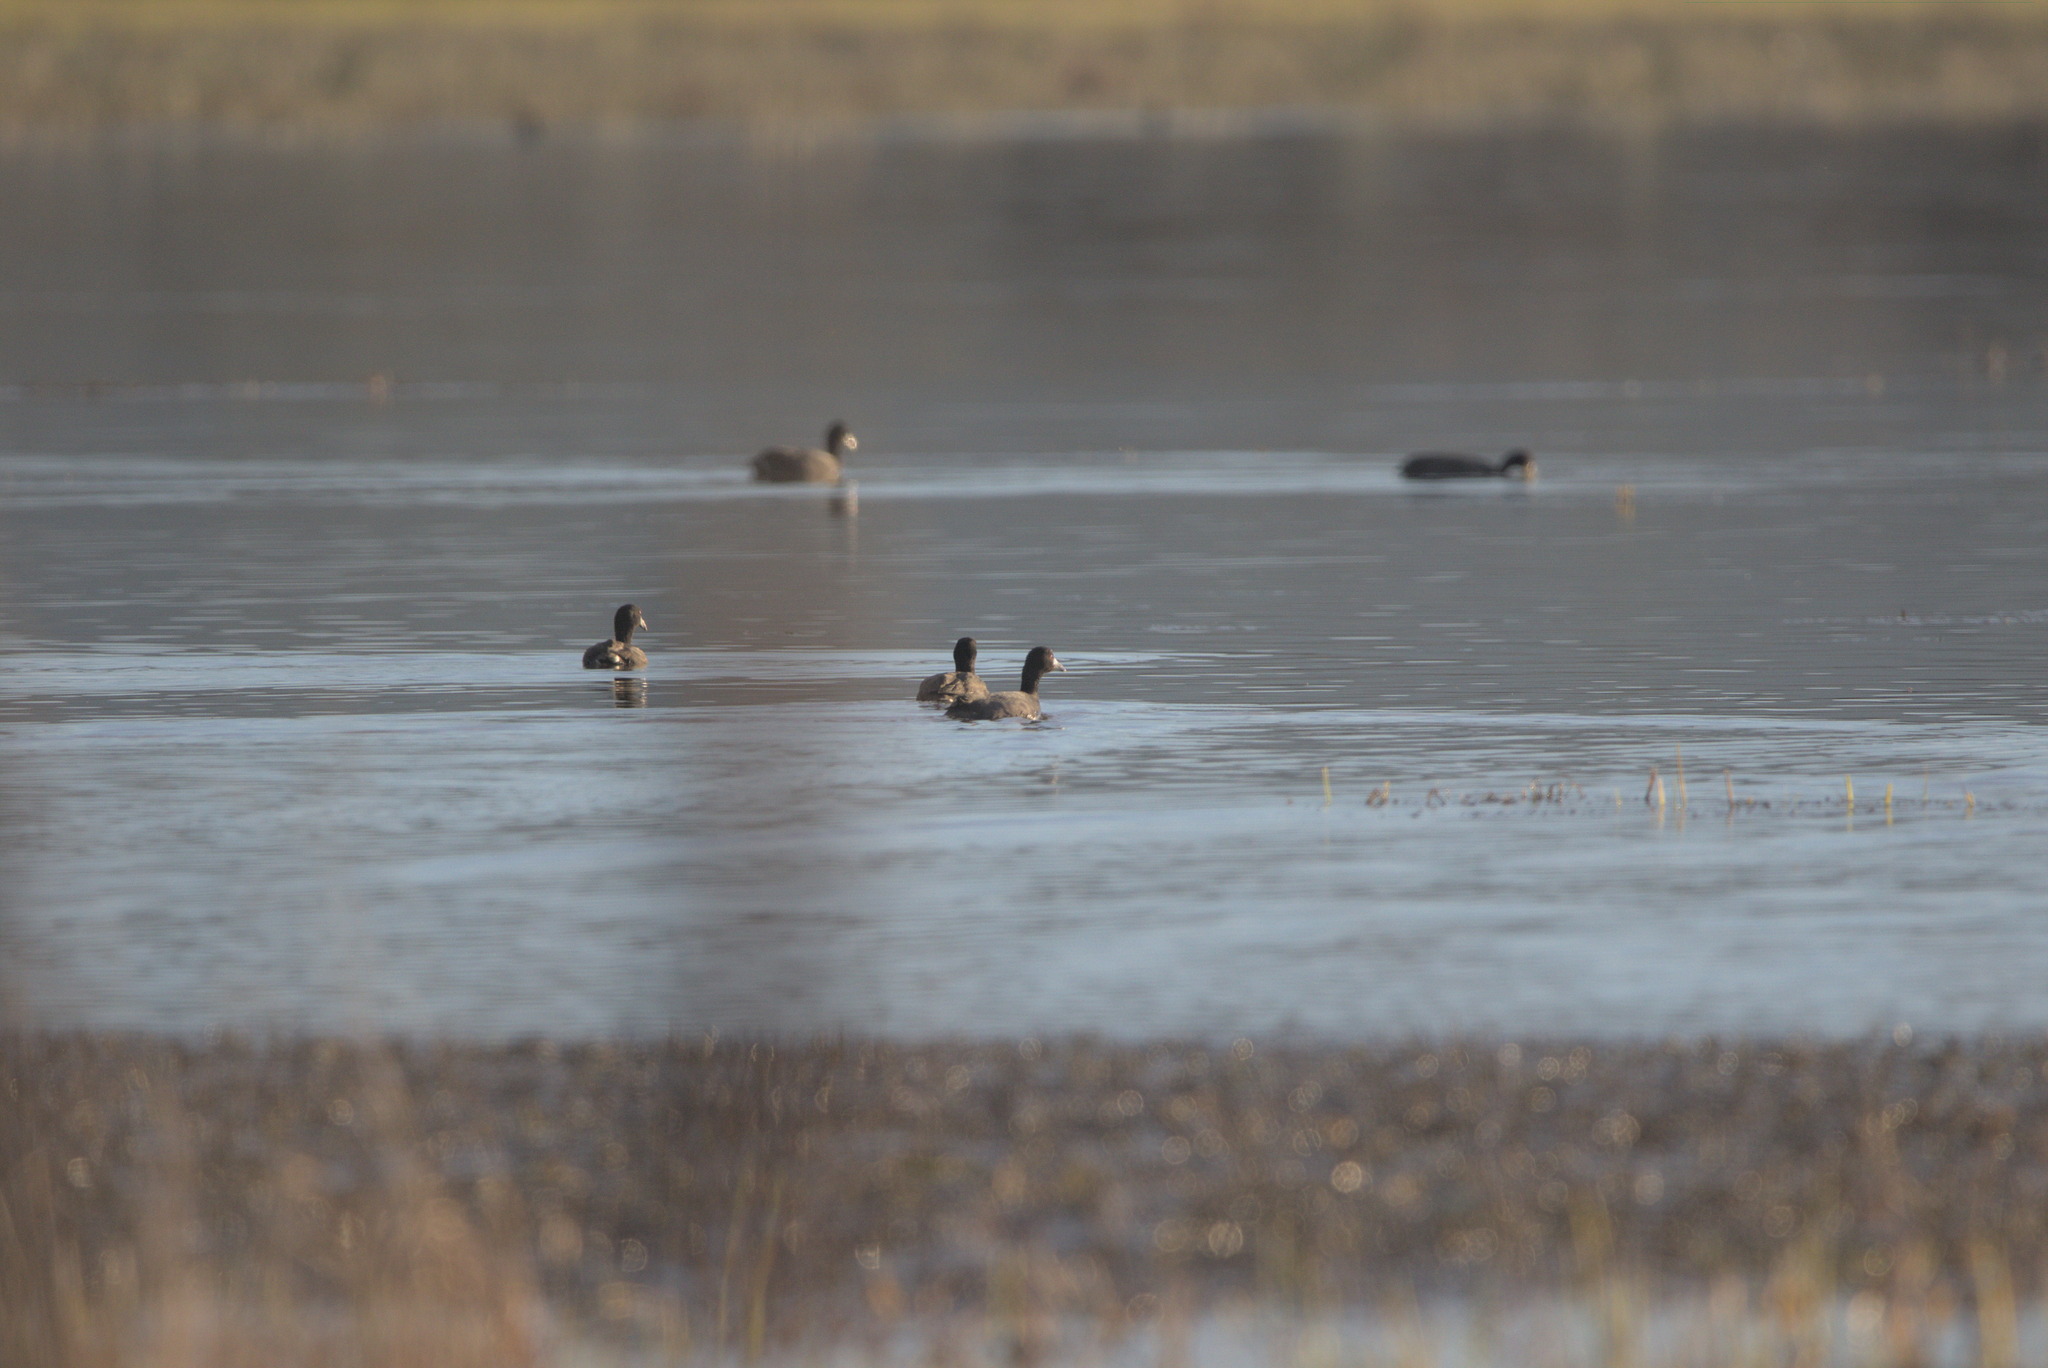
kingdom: Animalia
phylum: Chordata
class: Aves
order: Gruiformes
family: Rallidae
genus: Fulica
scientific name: Fulica americana
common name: American coot
